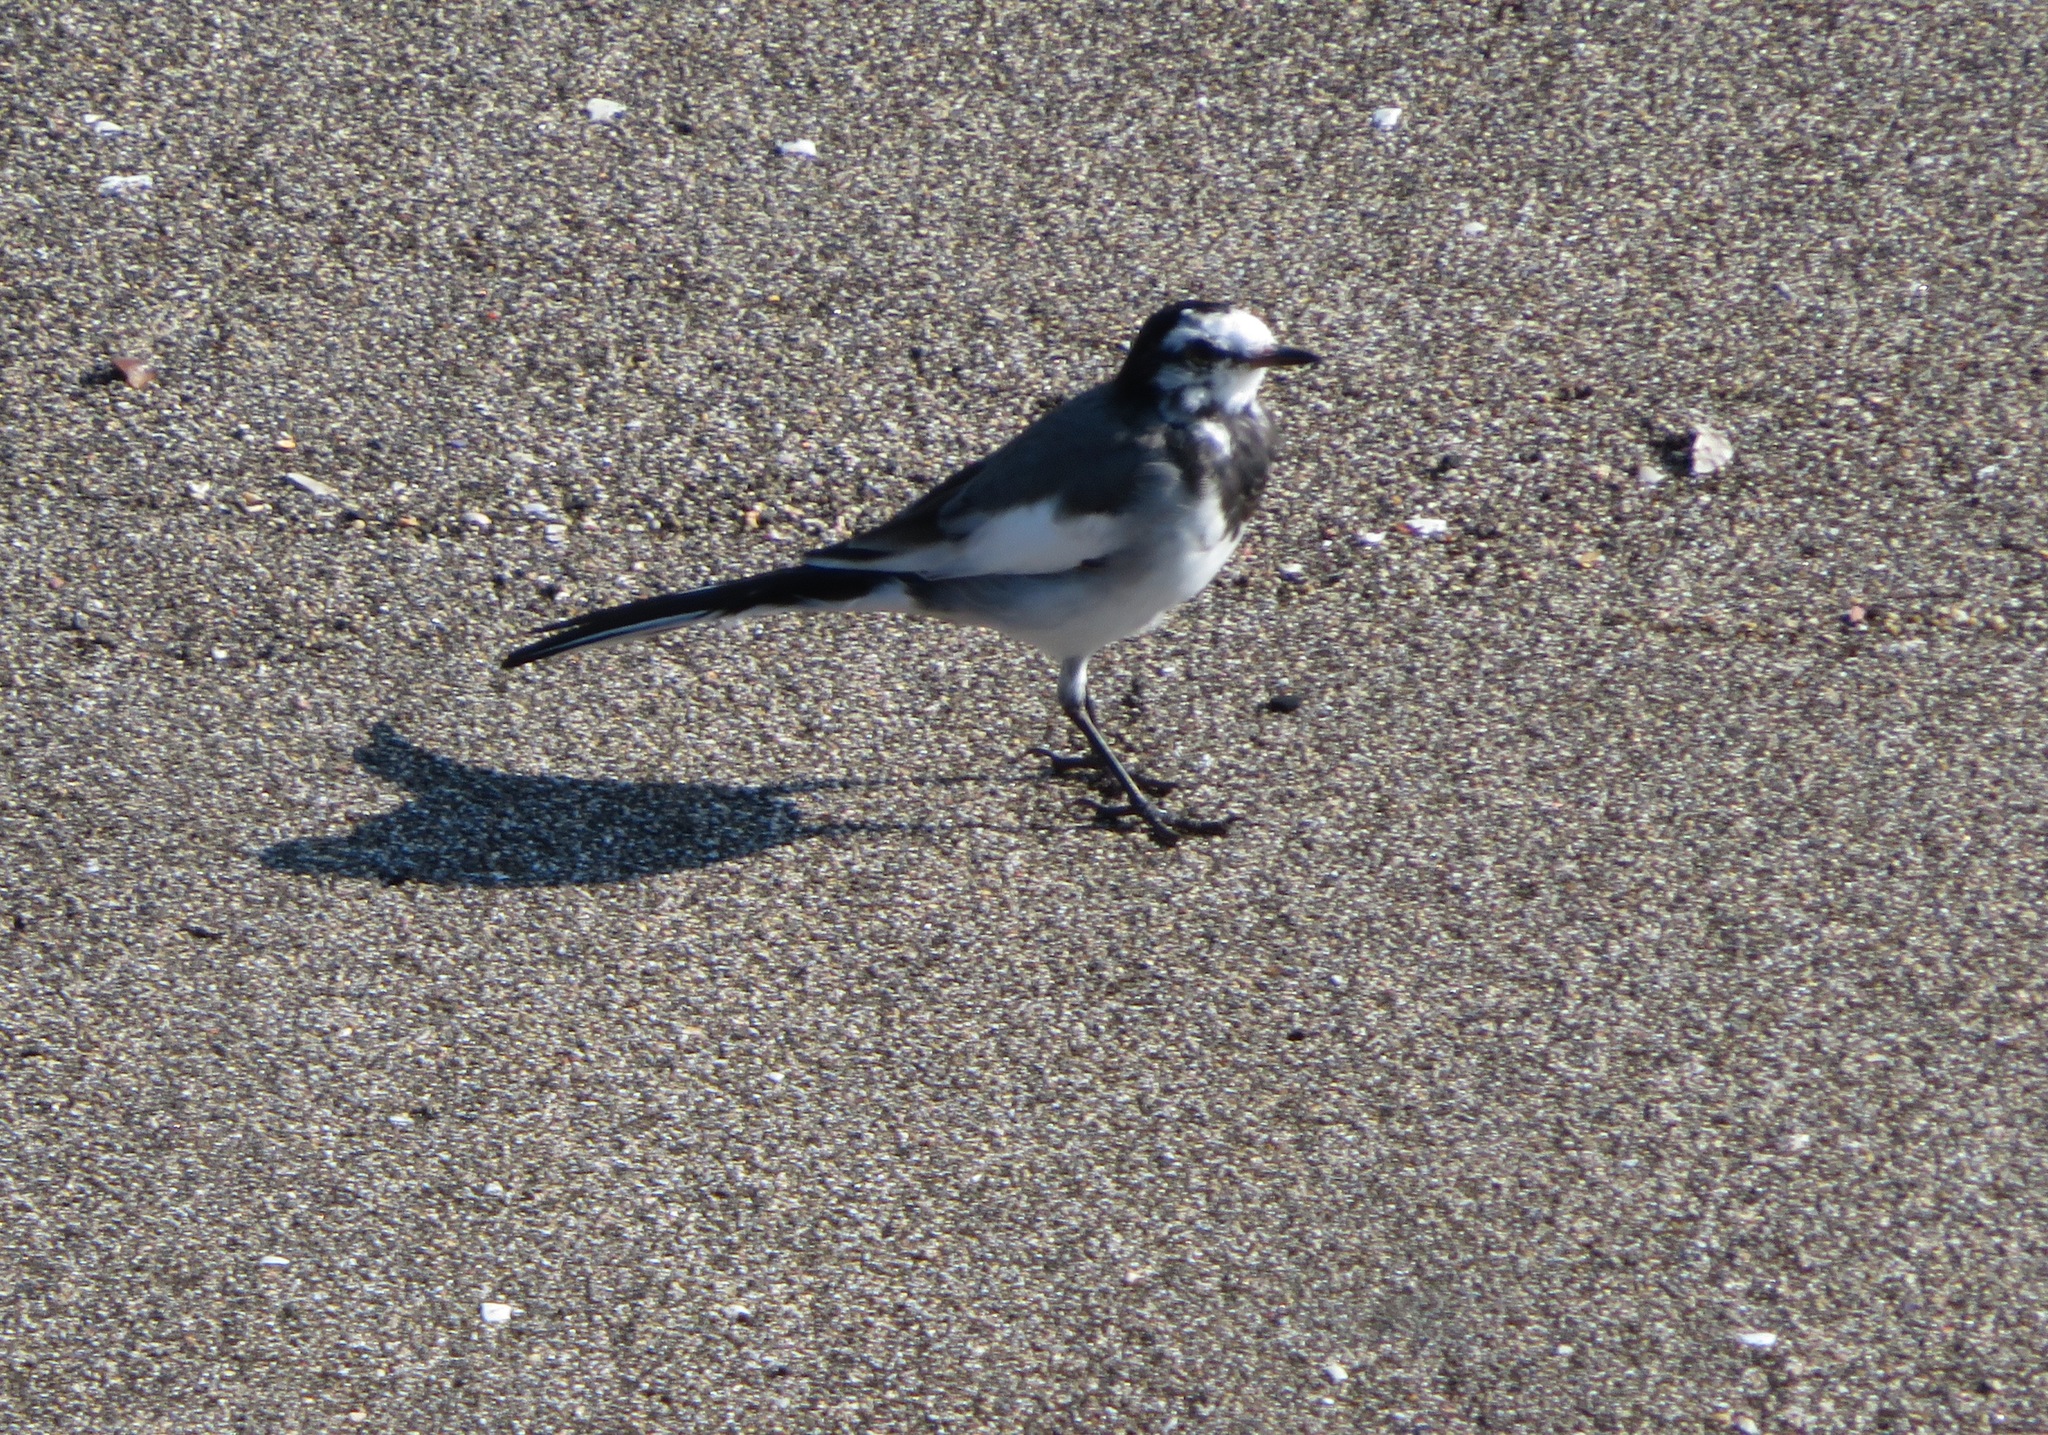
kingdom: Animalia
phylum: Chordata
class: Aves
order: Passeriformes
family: Motacillidae
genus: Motacilla
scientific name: Motacilla alba
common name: White wagtail
